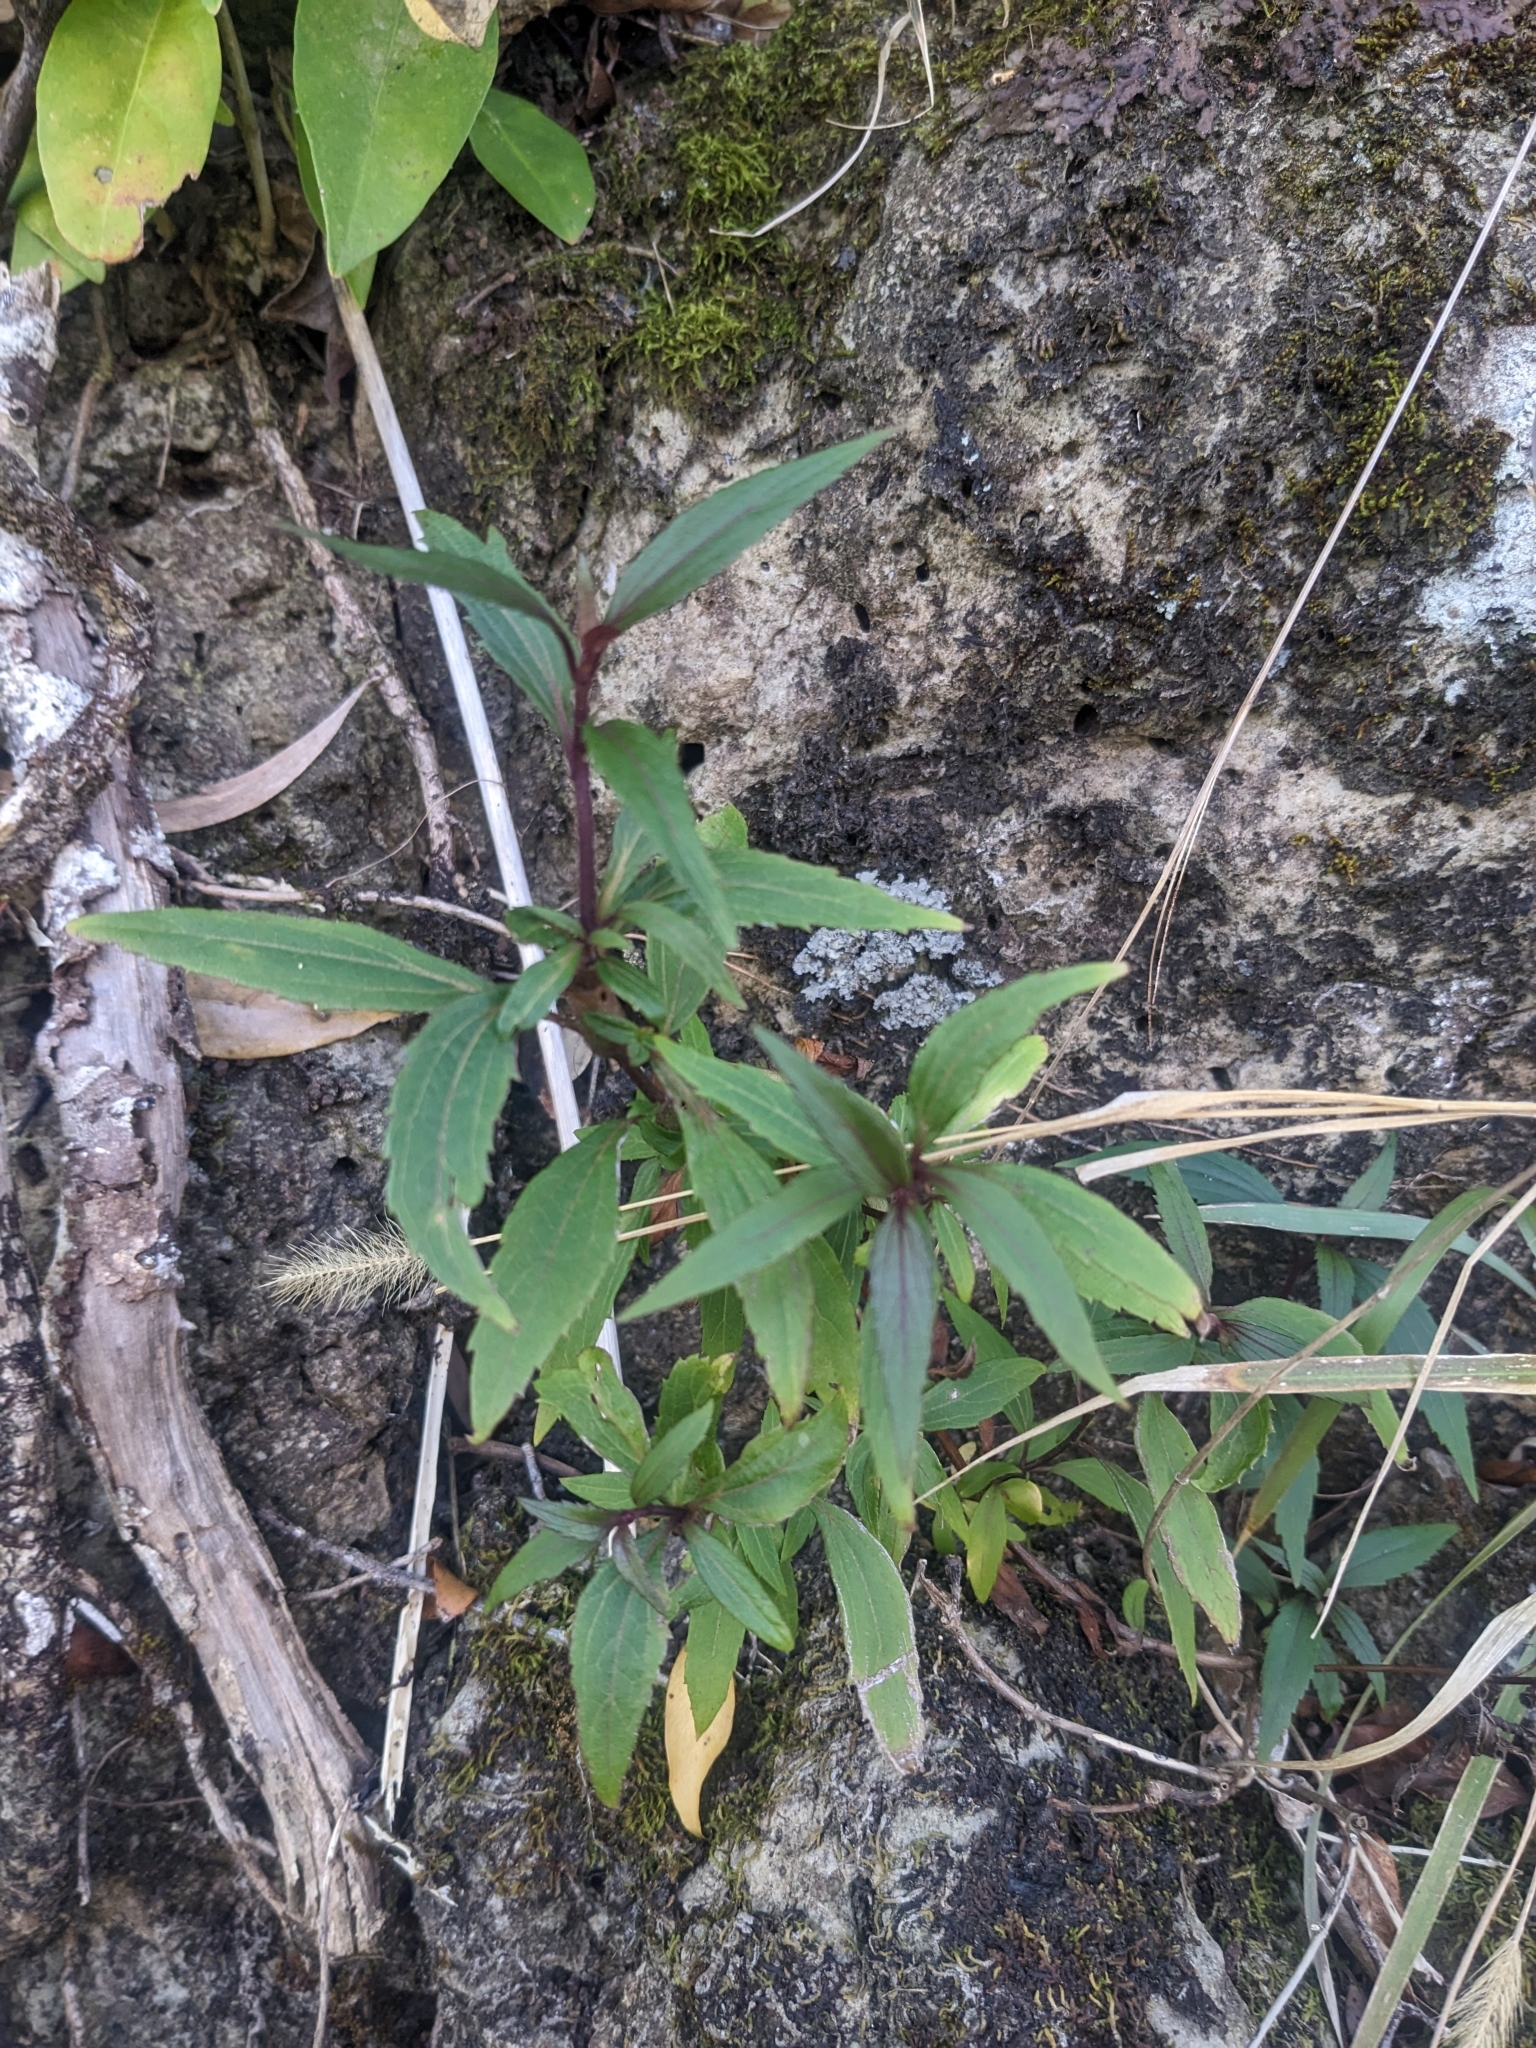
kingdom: Plantae
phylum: Tracheophyta
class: Magnoliopsida
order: Asterales
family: Asteraceae
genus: Ageratina
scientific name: Ageratina riparia
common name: Creeping croftonweed
